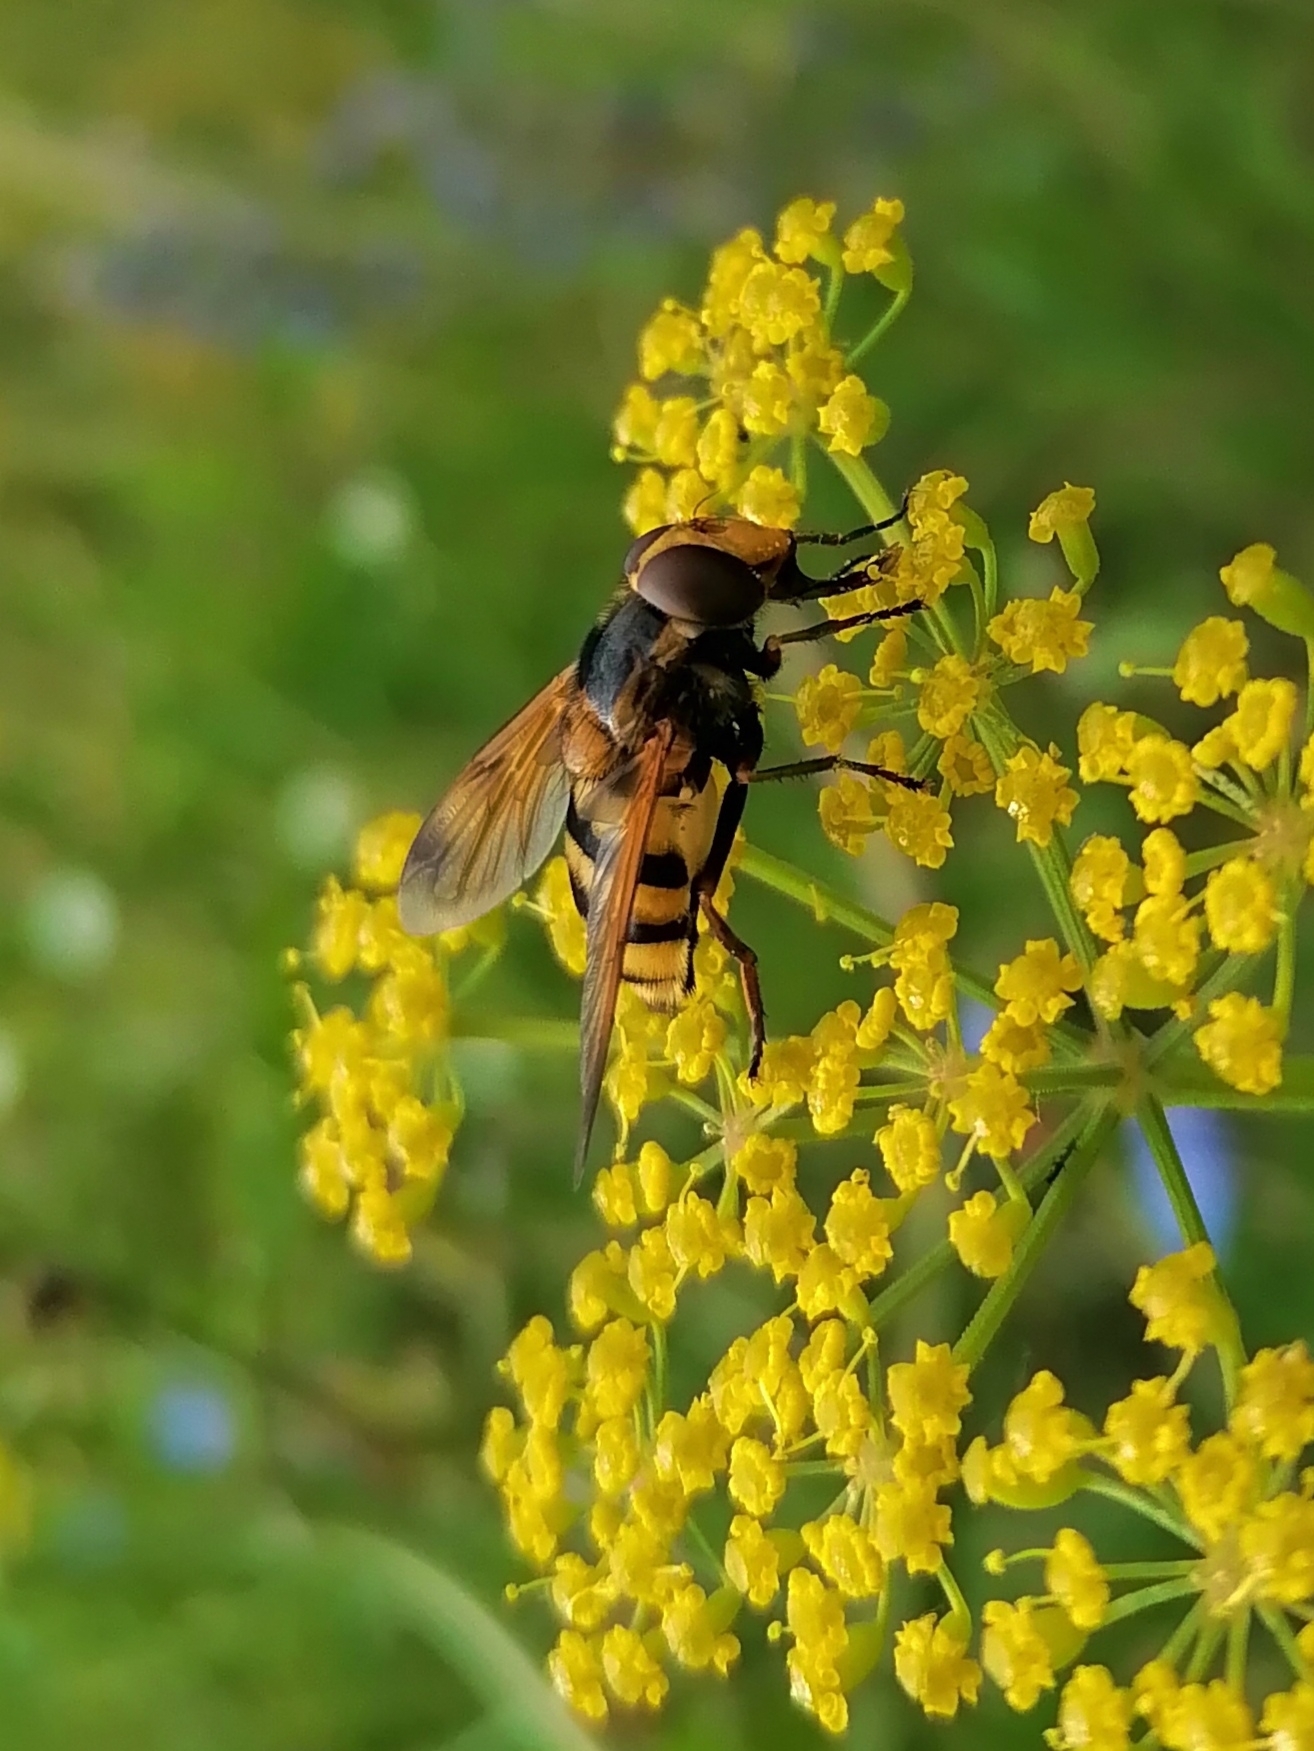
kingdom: Animalia
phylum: Arthropoda
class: Insecta
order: Diptera
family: Syrphidae
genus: Volucella
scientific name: Volucella inanis
